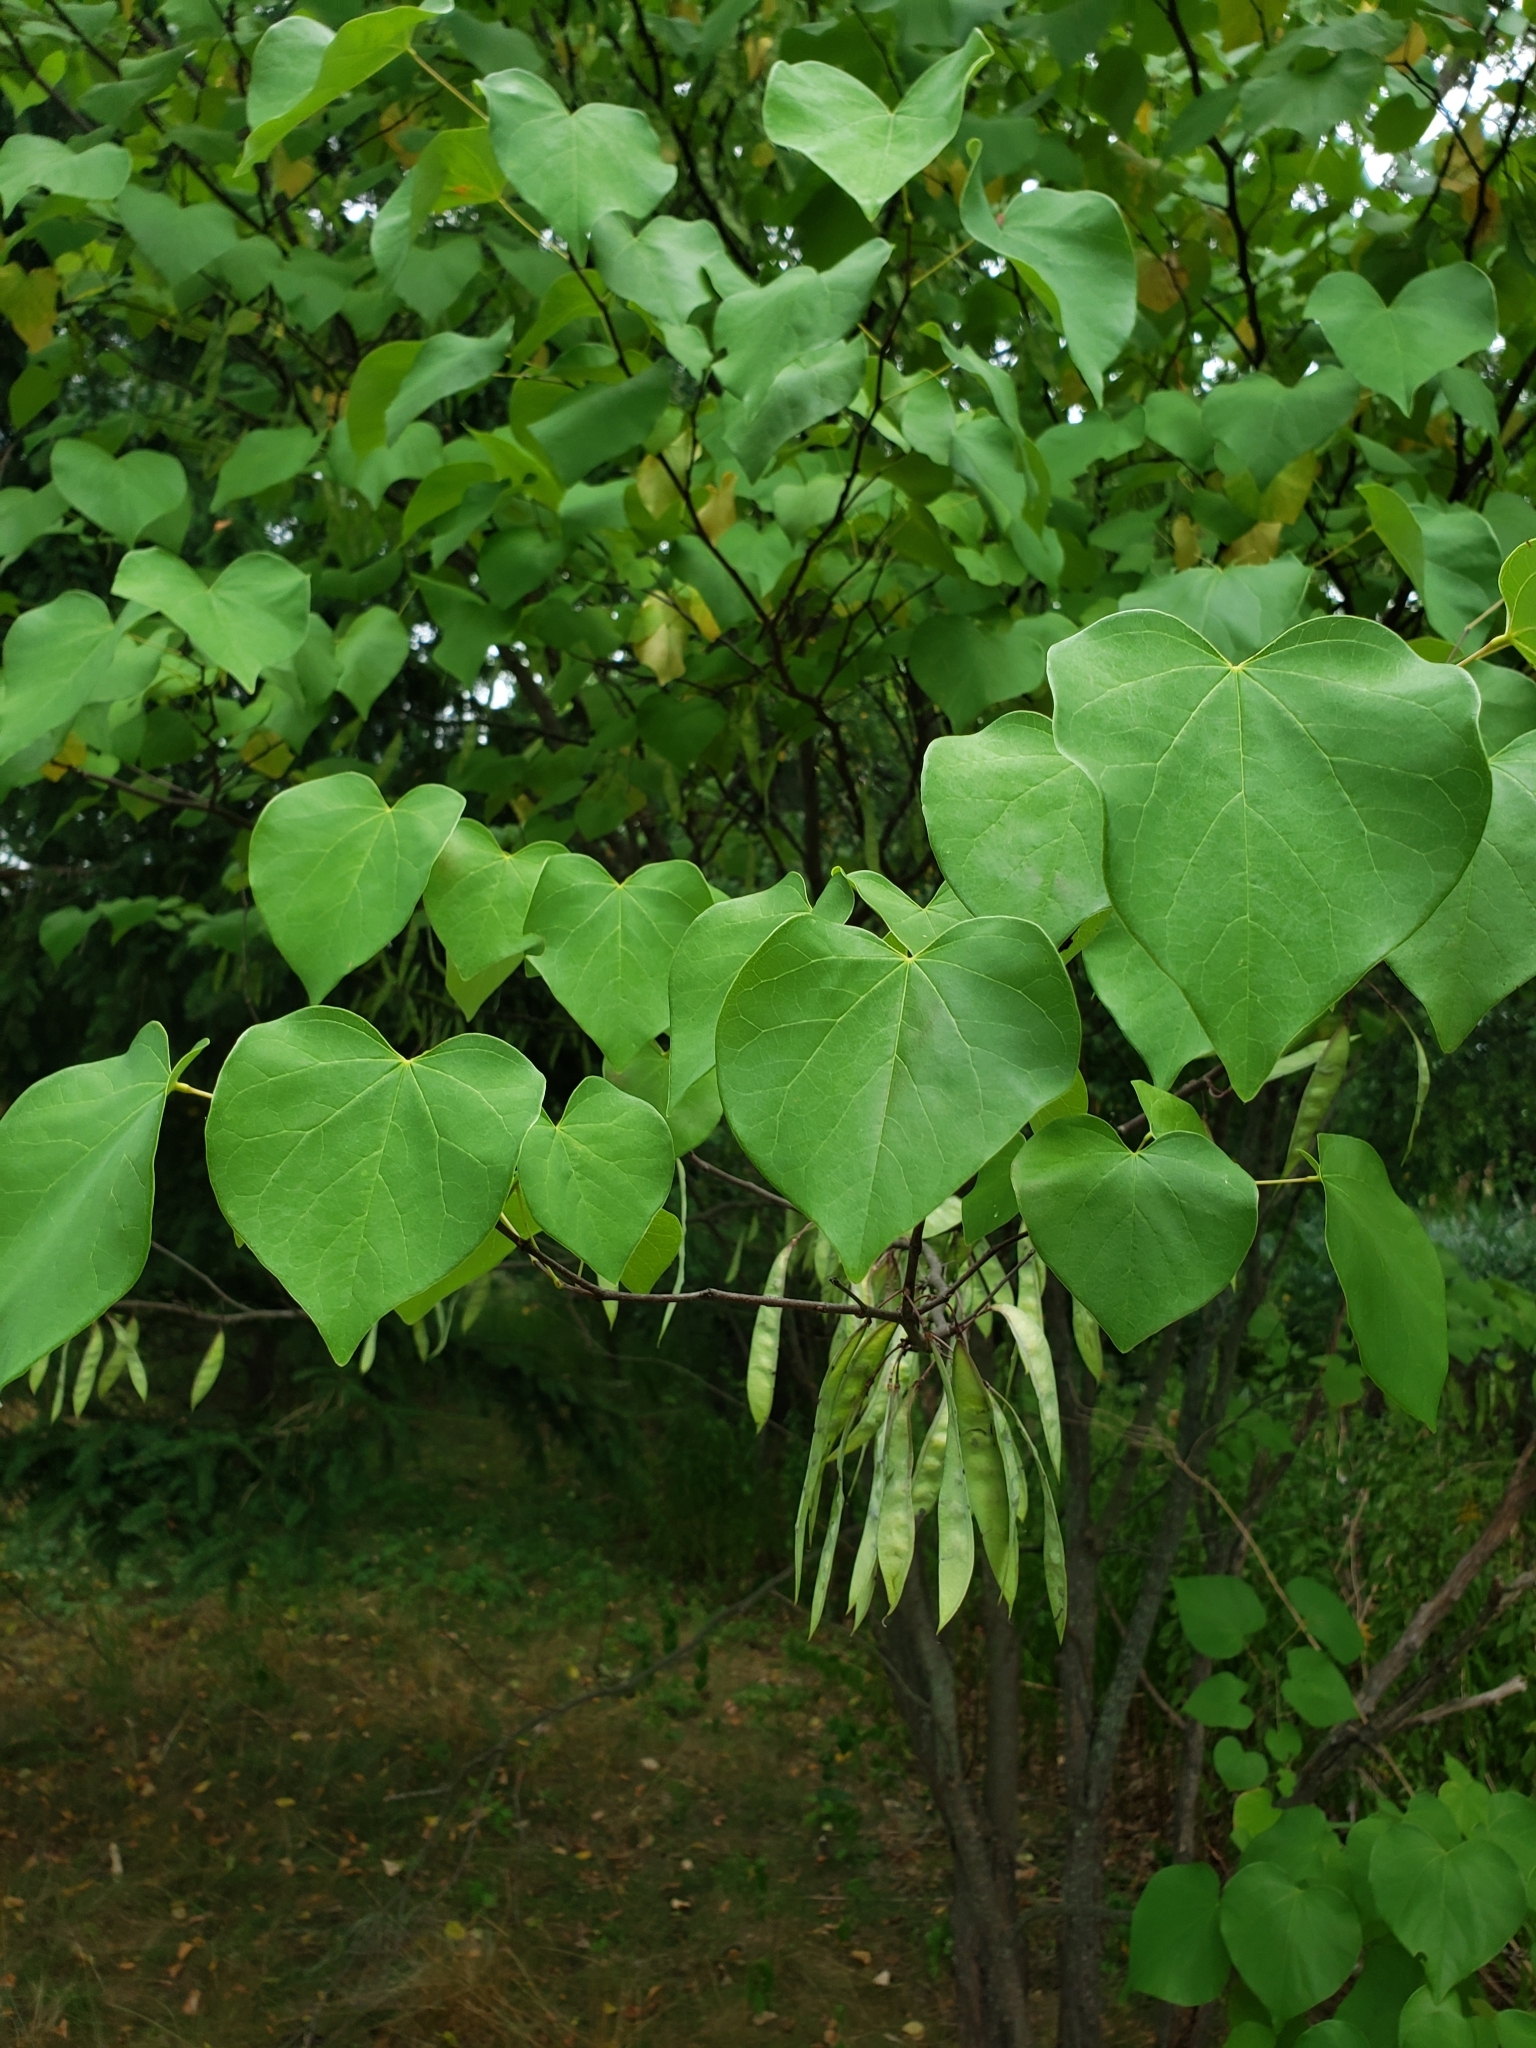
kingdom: Plantae
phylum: Tracheophyta
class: Magnoliopsida
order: Fabales
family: Fabaceae
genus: Cercis
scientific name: Cercis canadensis
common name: Eastern redbud
